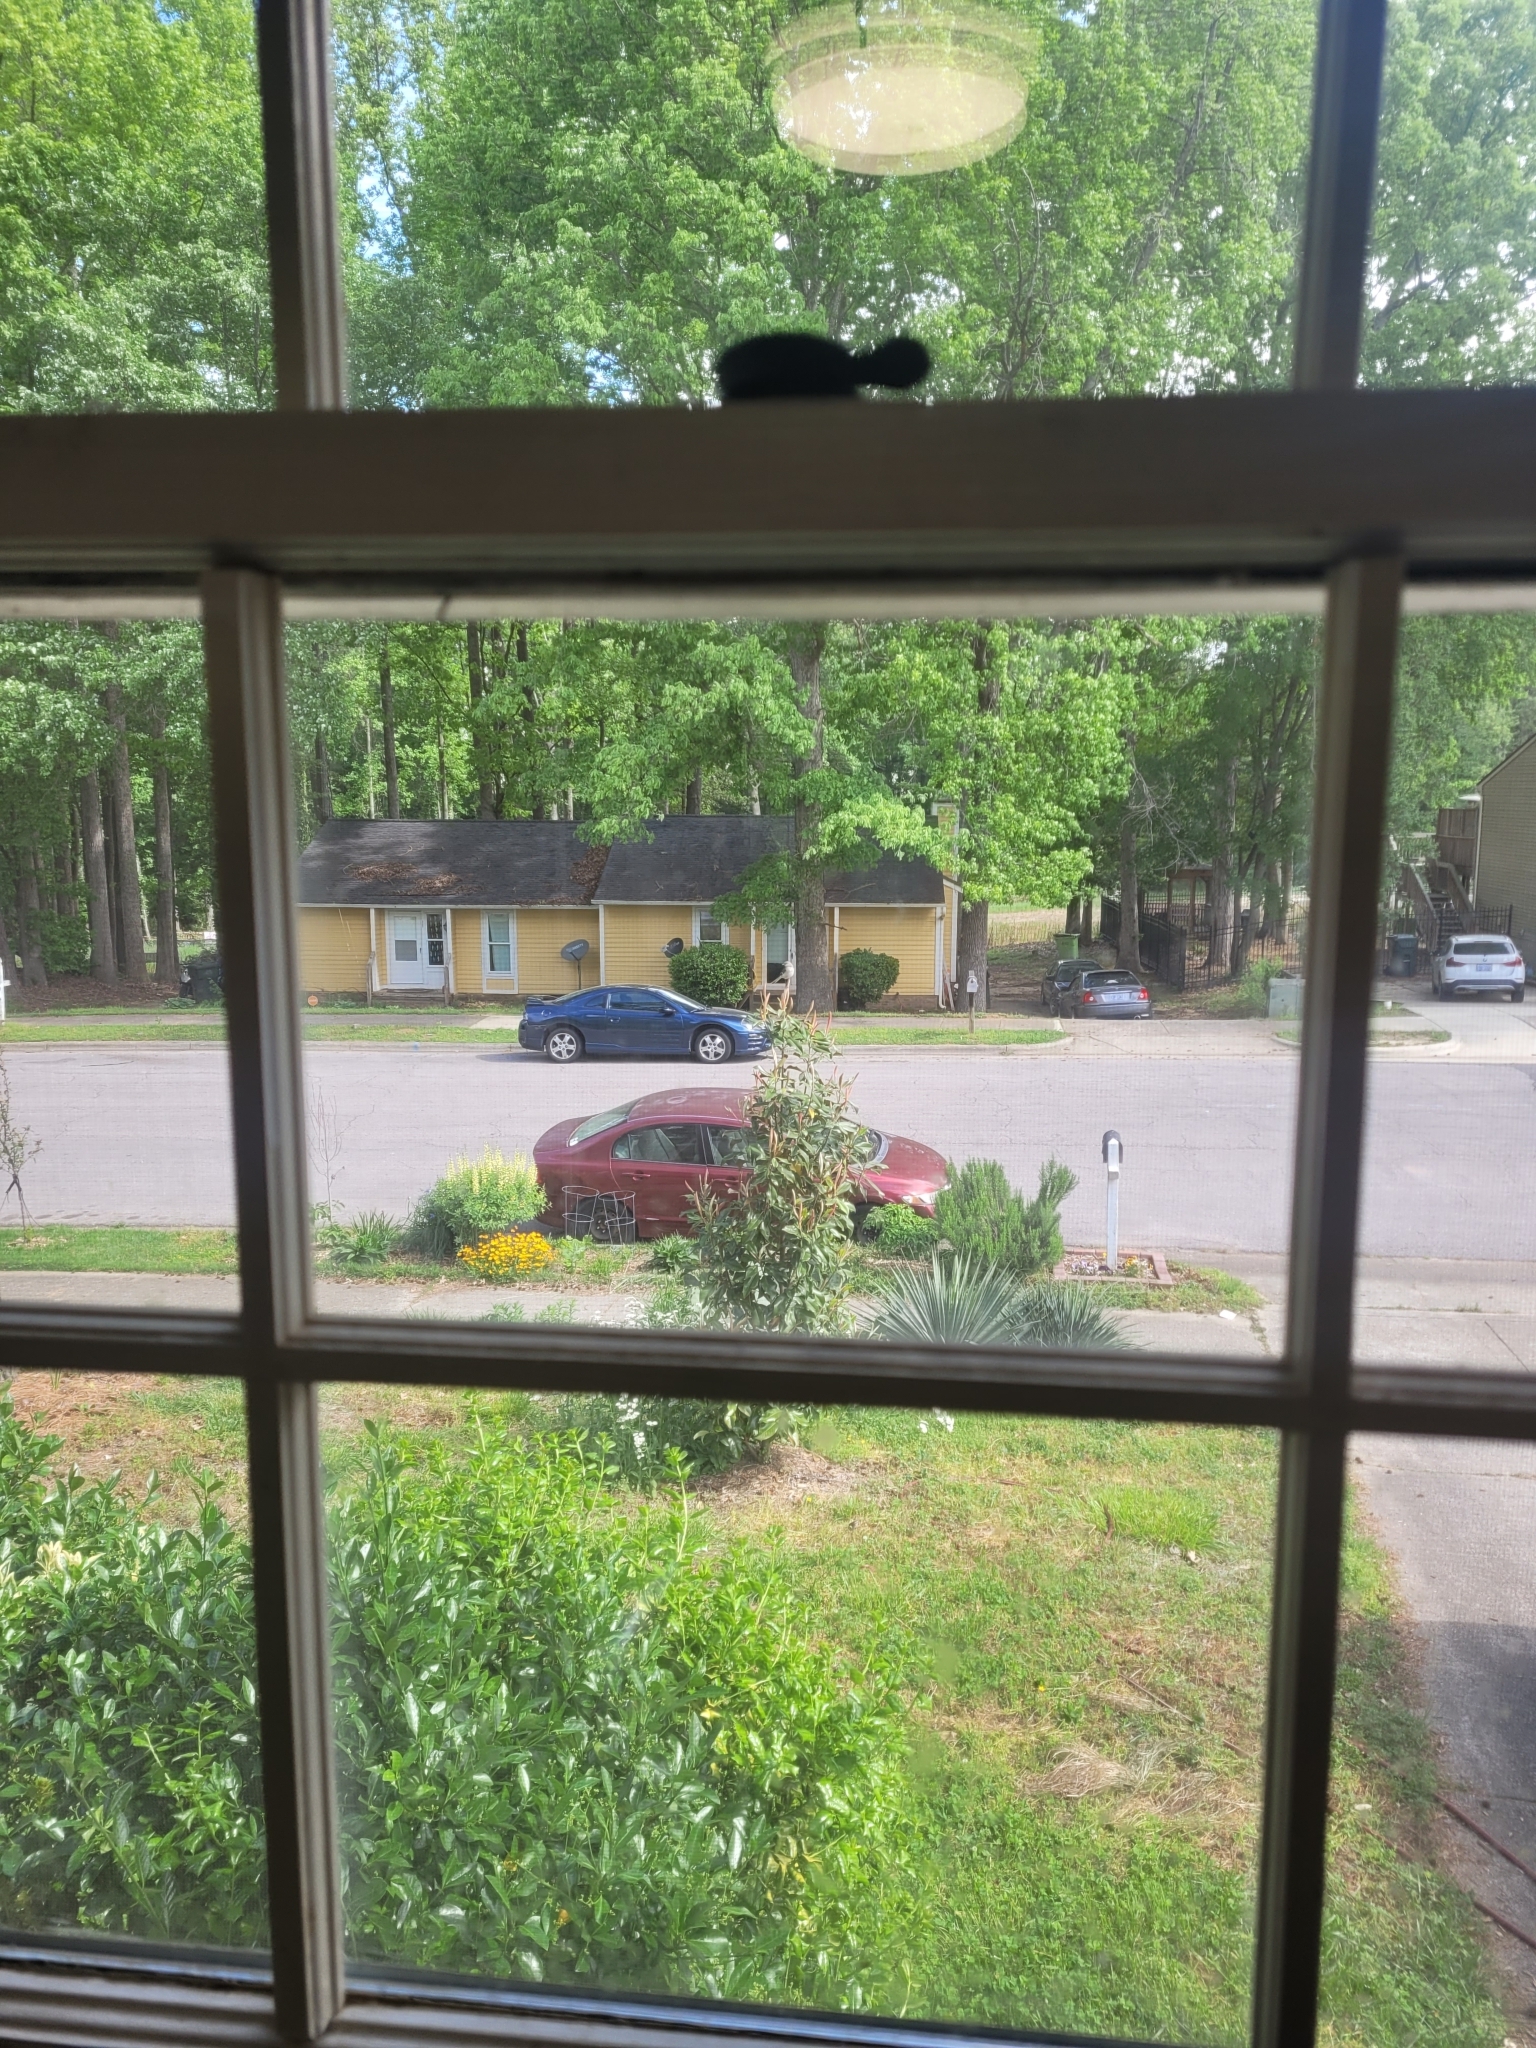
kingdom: Animalia
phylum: Chordata
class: Aves
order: Passeriformes
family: Mimidae
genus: Mimus
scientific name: Mimus polyglottos
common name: Northern mockingbird
